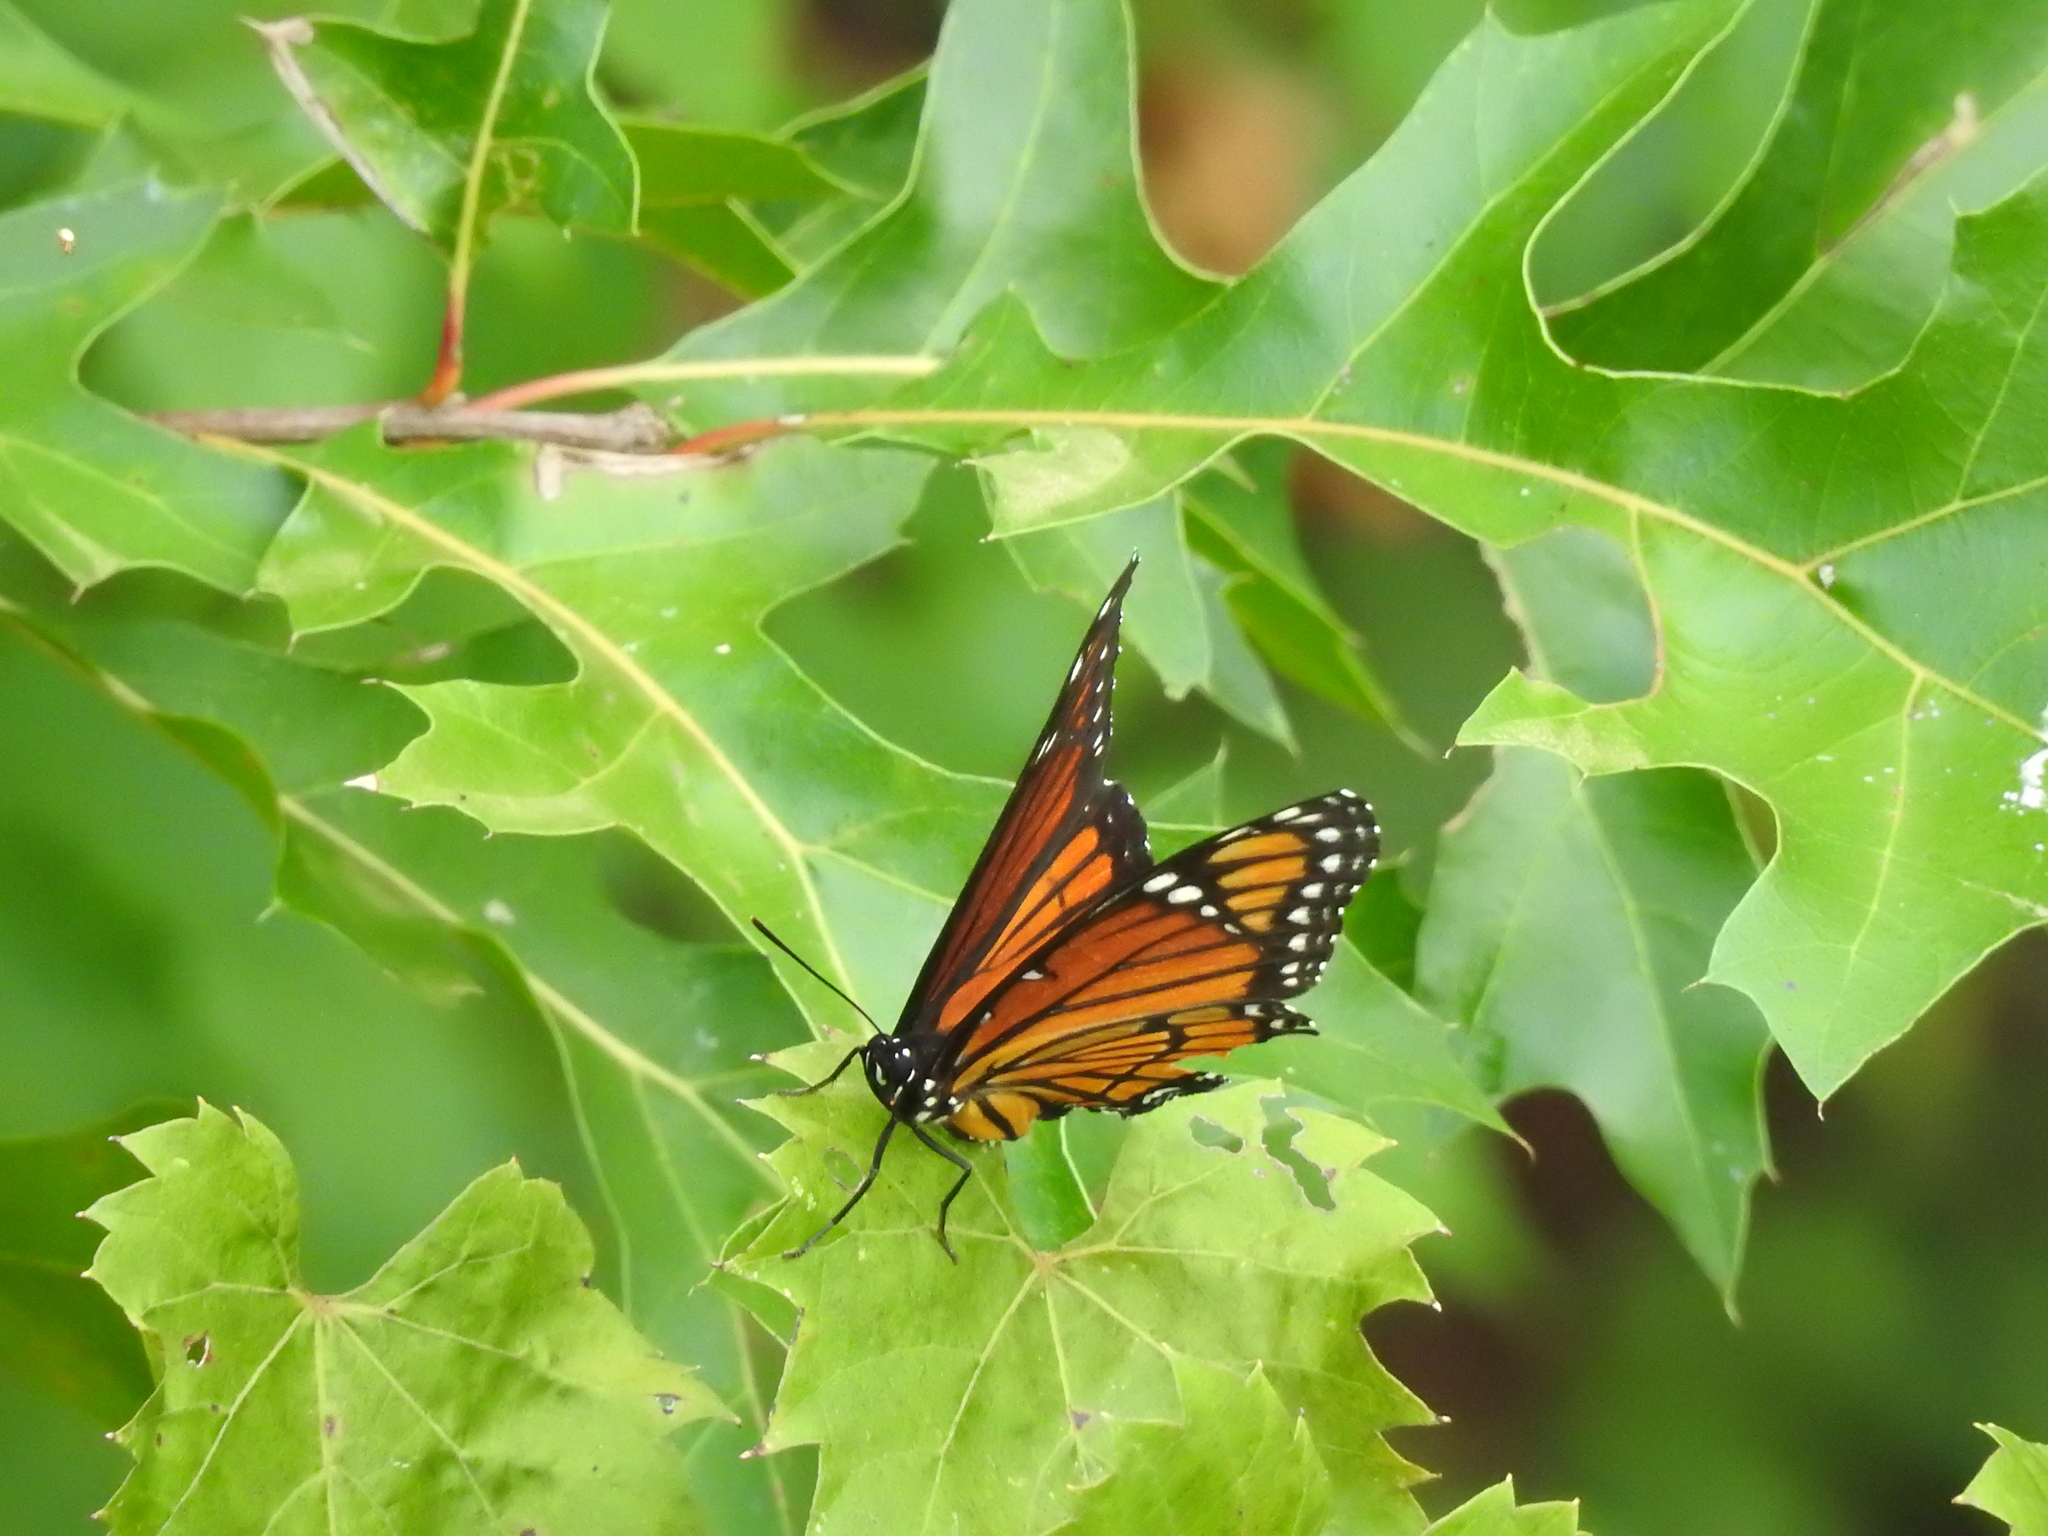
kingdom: Animalia
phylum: Arthropoda
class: Insecta
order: Lepidoptera
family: Nymphalidae
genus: Limenitis
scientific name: Limenitis archippus
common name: Viceroy
